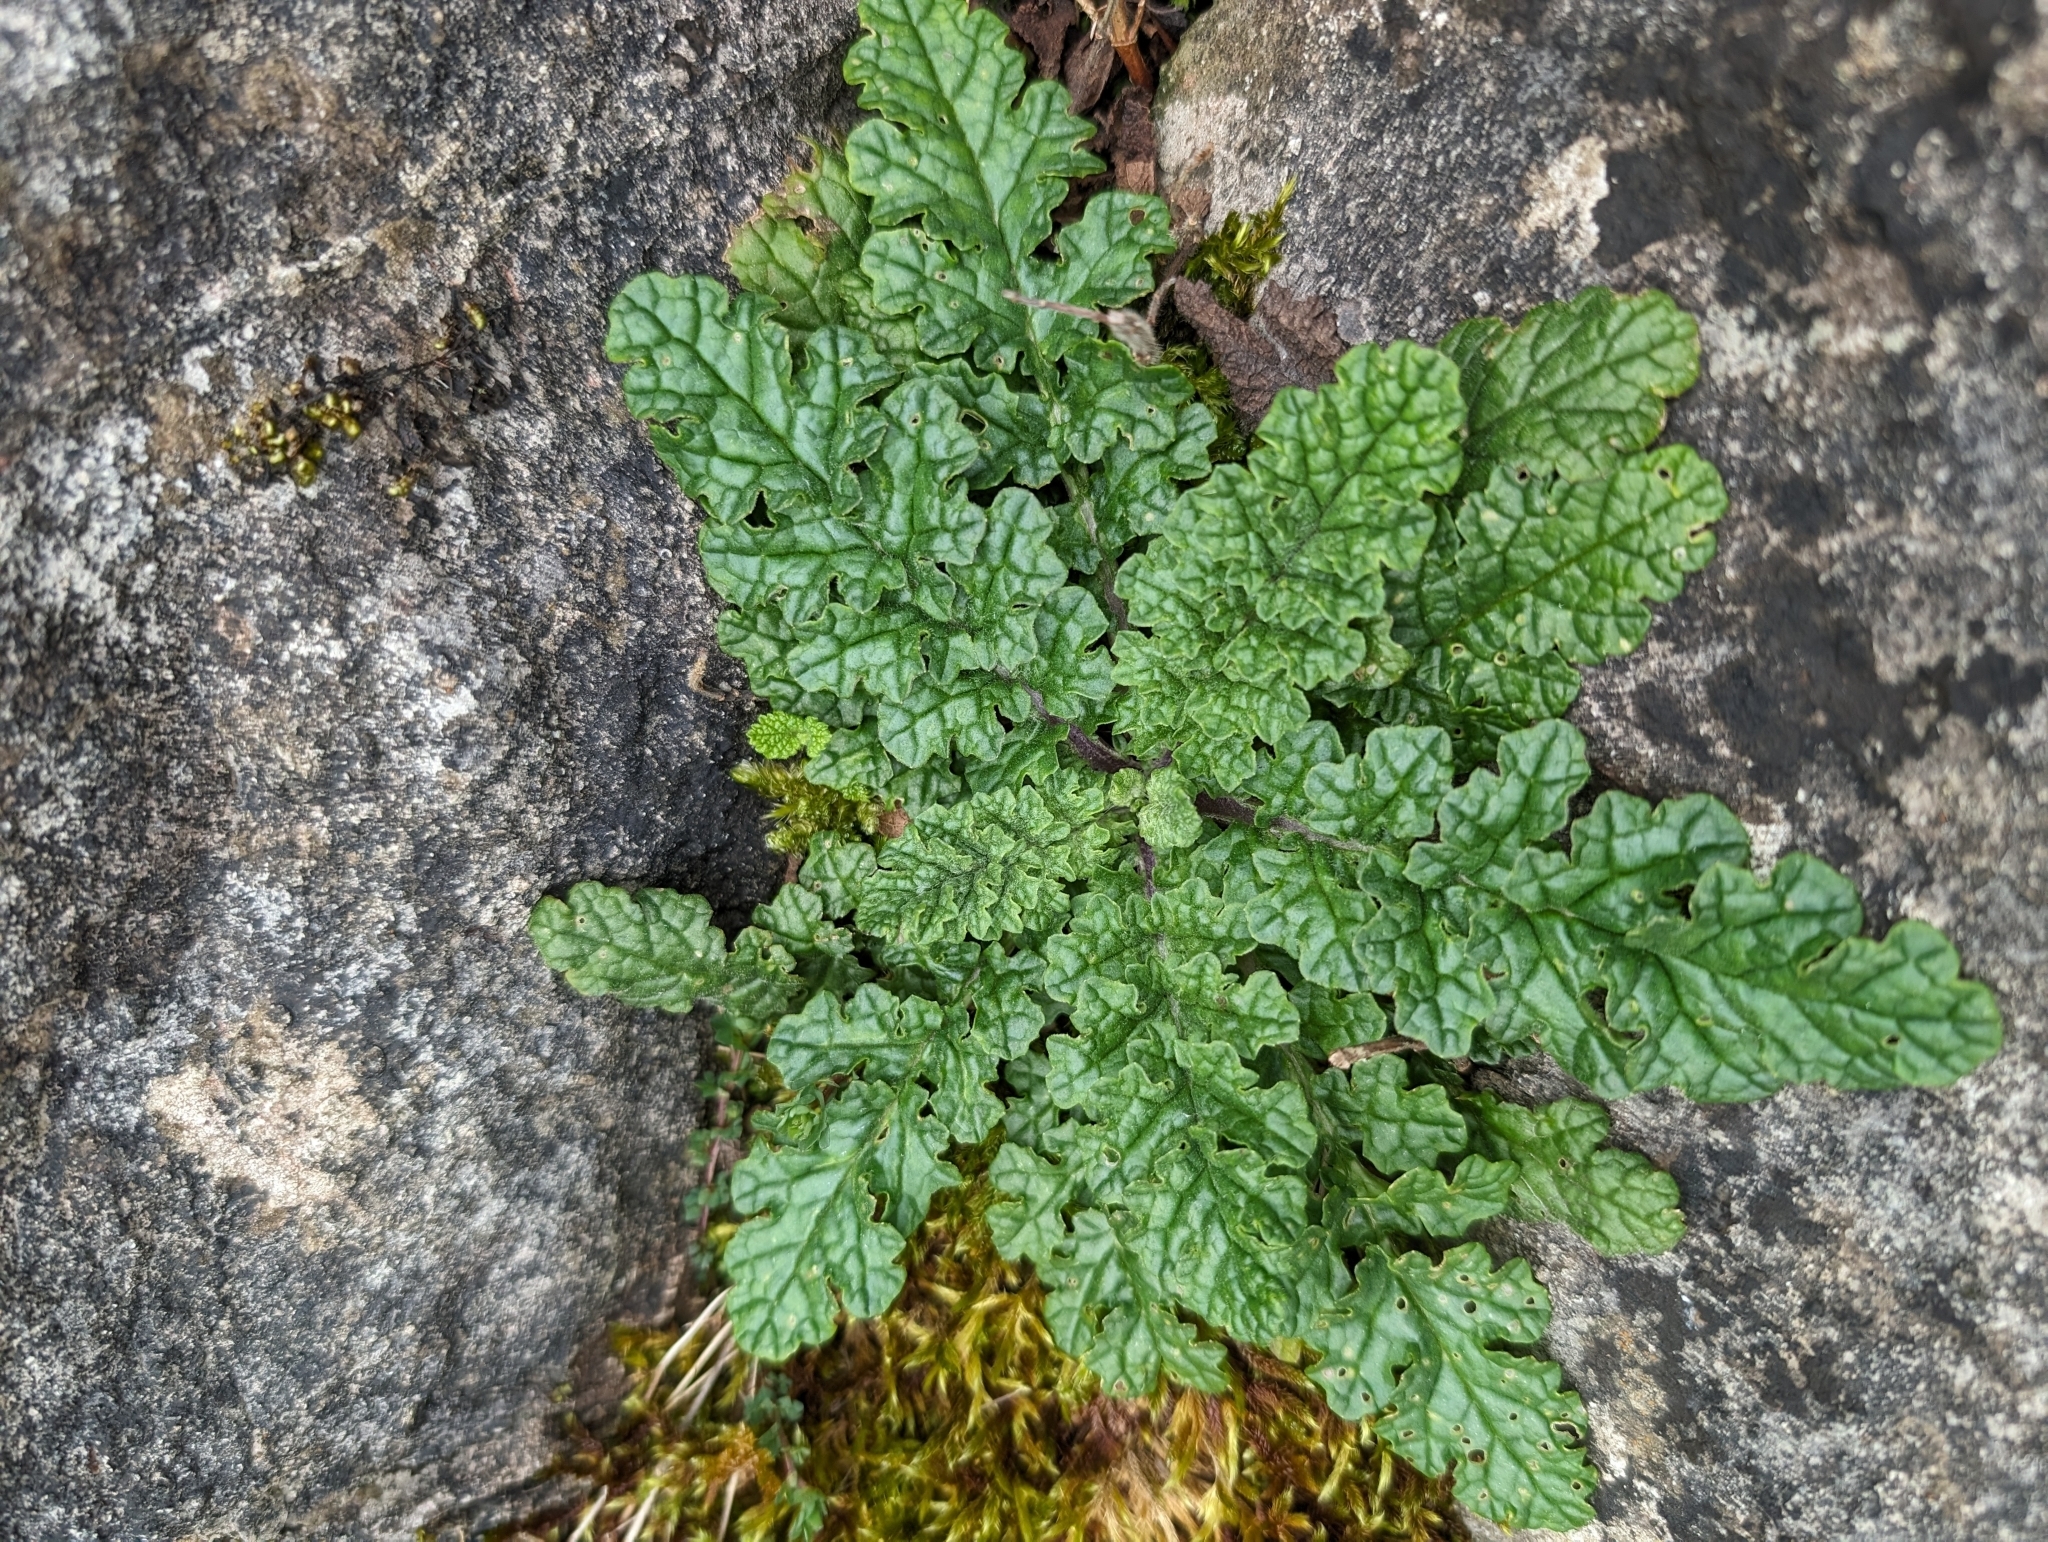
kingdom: Plantae
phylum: Tracheophyta
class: Magnoliopsida
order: Asterales
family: Asteraceae
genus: Jacobaea
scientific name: Jacobaea vulgaris
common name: Stinking willie
